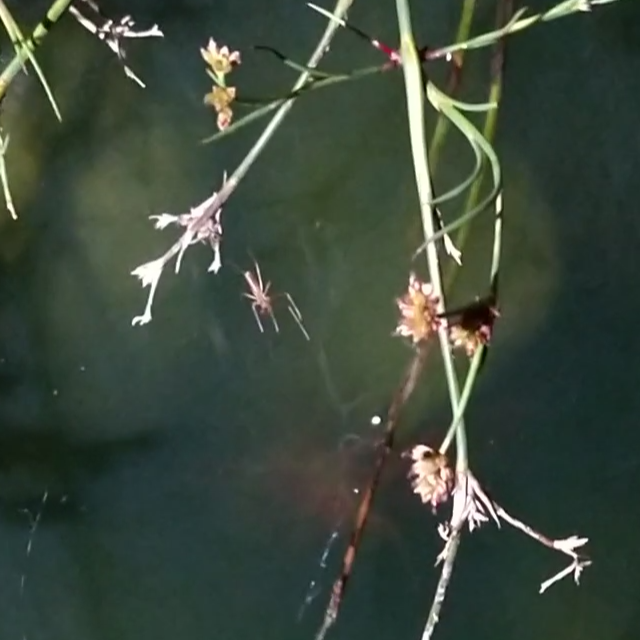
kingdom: Animalia
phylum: Arthropoda
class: Arachnida
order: Araneae
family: Tetragnathidae
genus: Tetragnatha
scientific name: Tetragnatha
